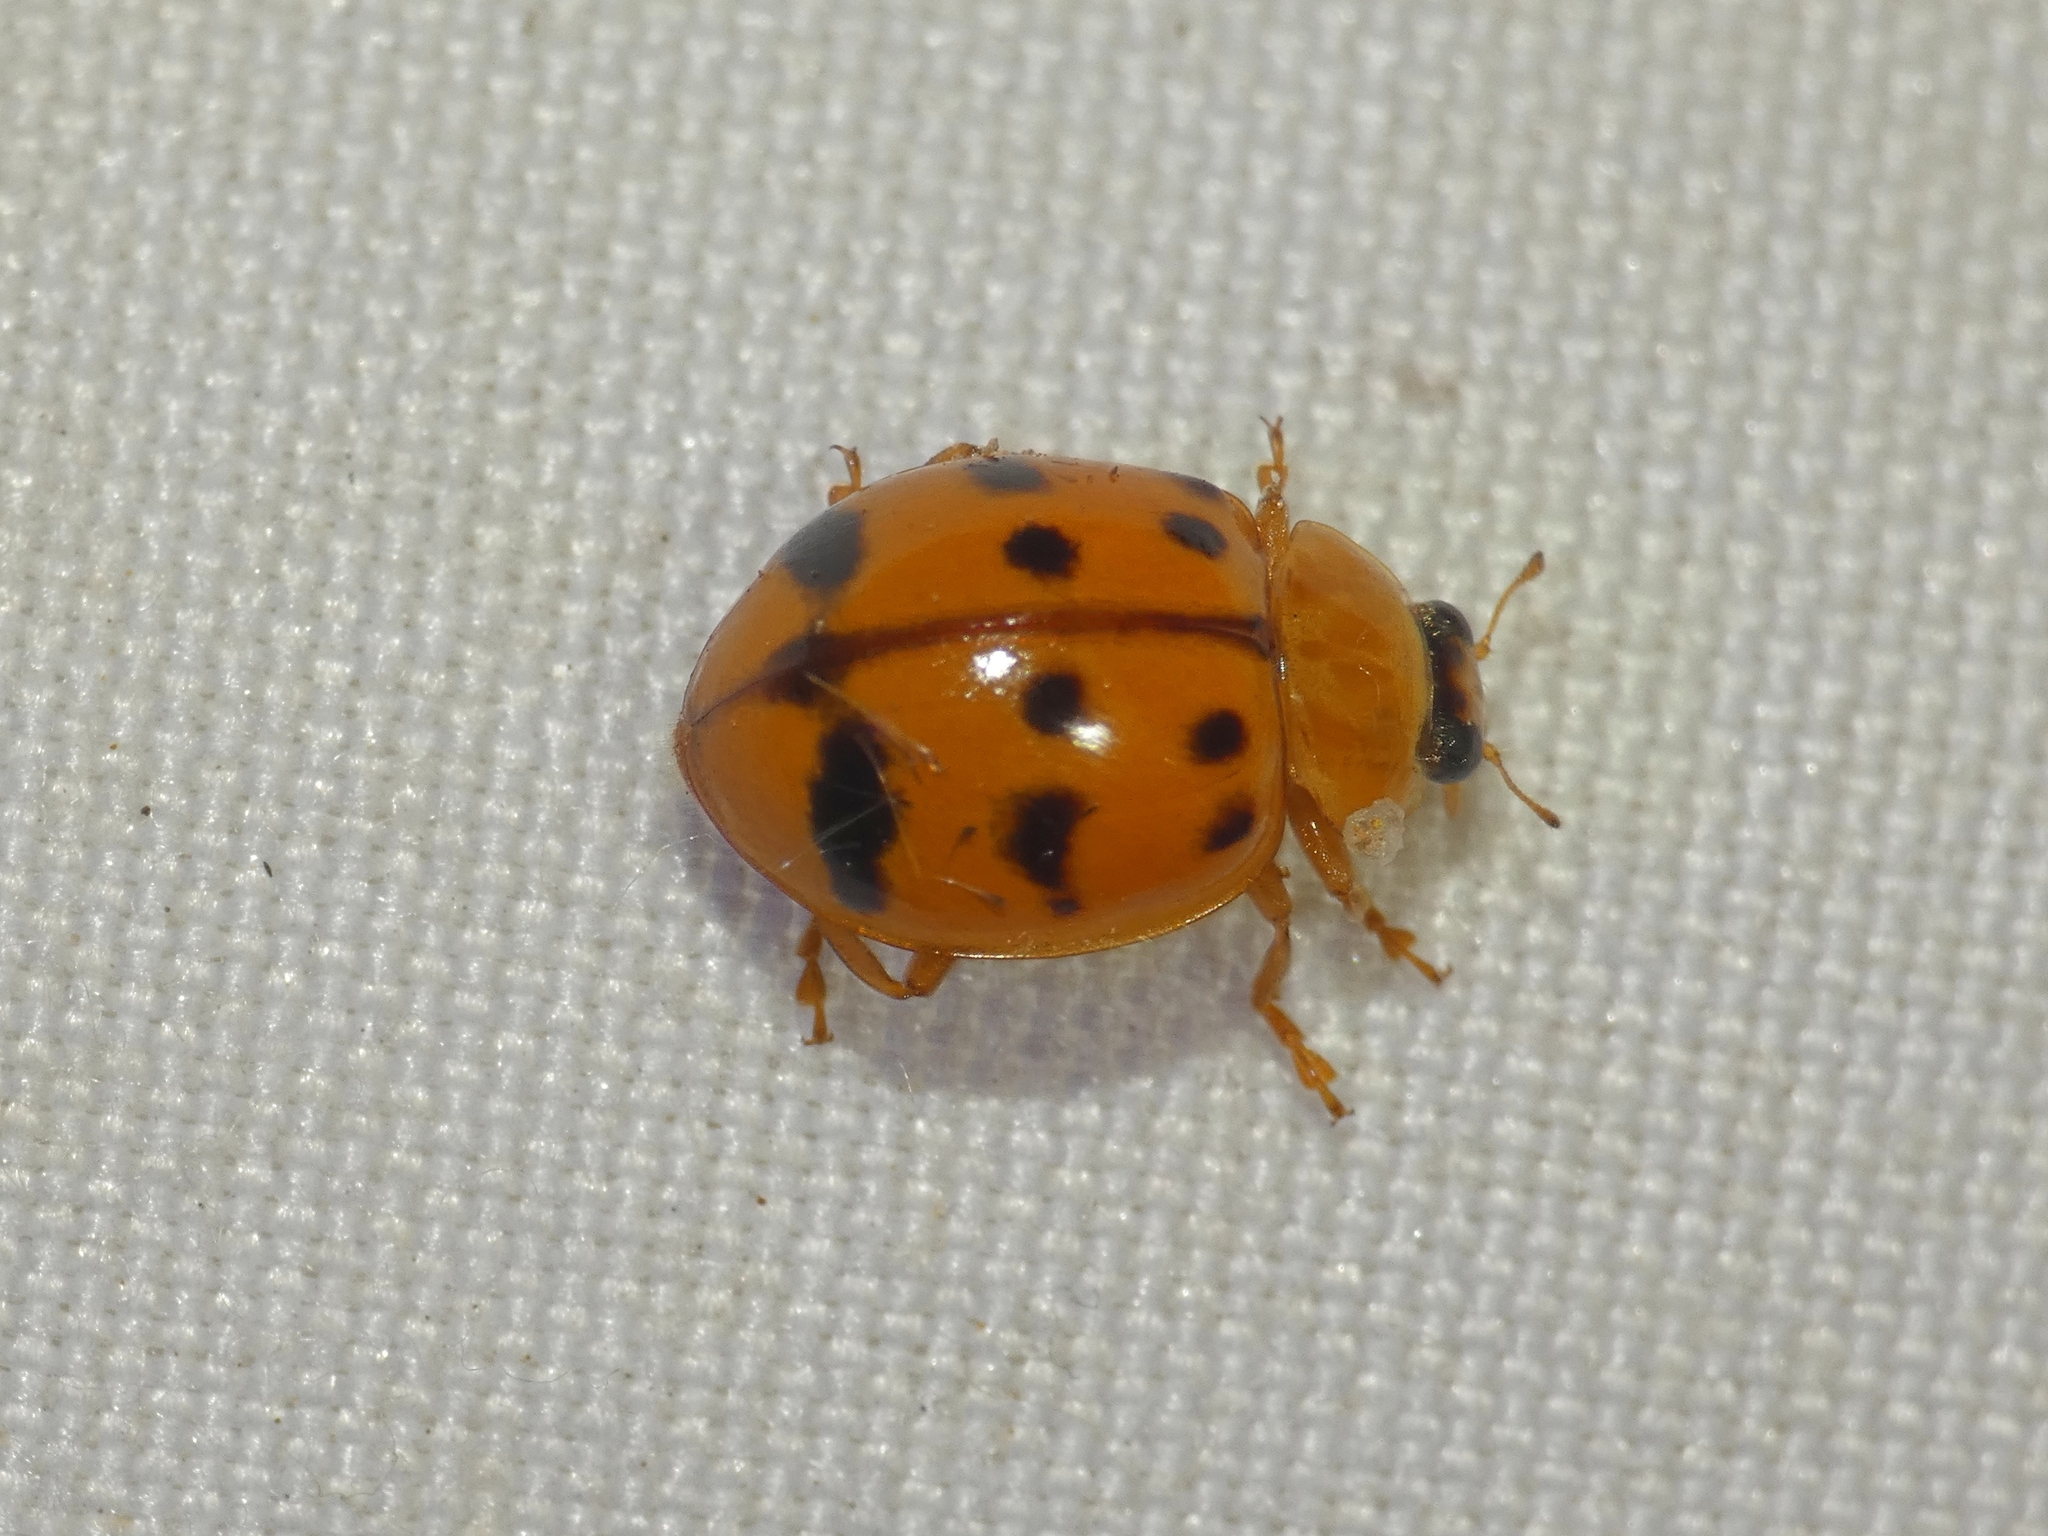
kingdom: Animalia
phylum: Arthropoda
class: Insecta
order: Coleoptera
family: Coccinellidae
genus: Harmonia
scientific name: Harmonia octomaculata
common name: Lady beetle
